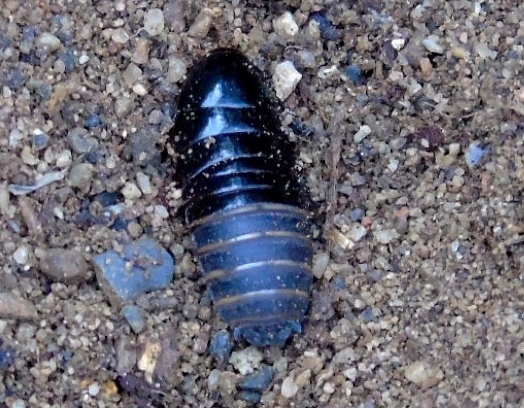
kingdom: Animalia
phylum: Arthropoda
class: Insecta
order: Blattodea
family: Blaberidae
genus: Pycnoscelus
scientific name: Pycnoscelus surinamensis
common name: Surinam cockroach
